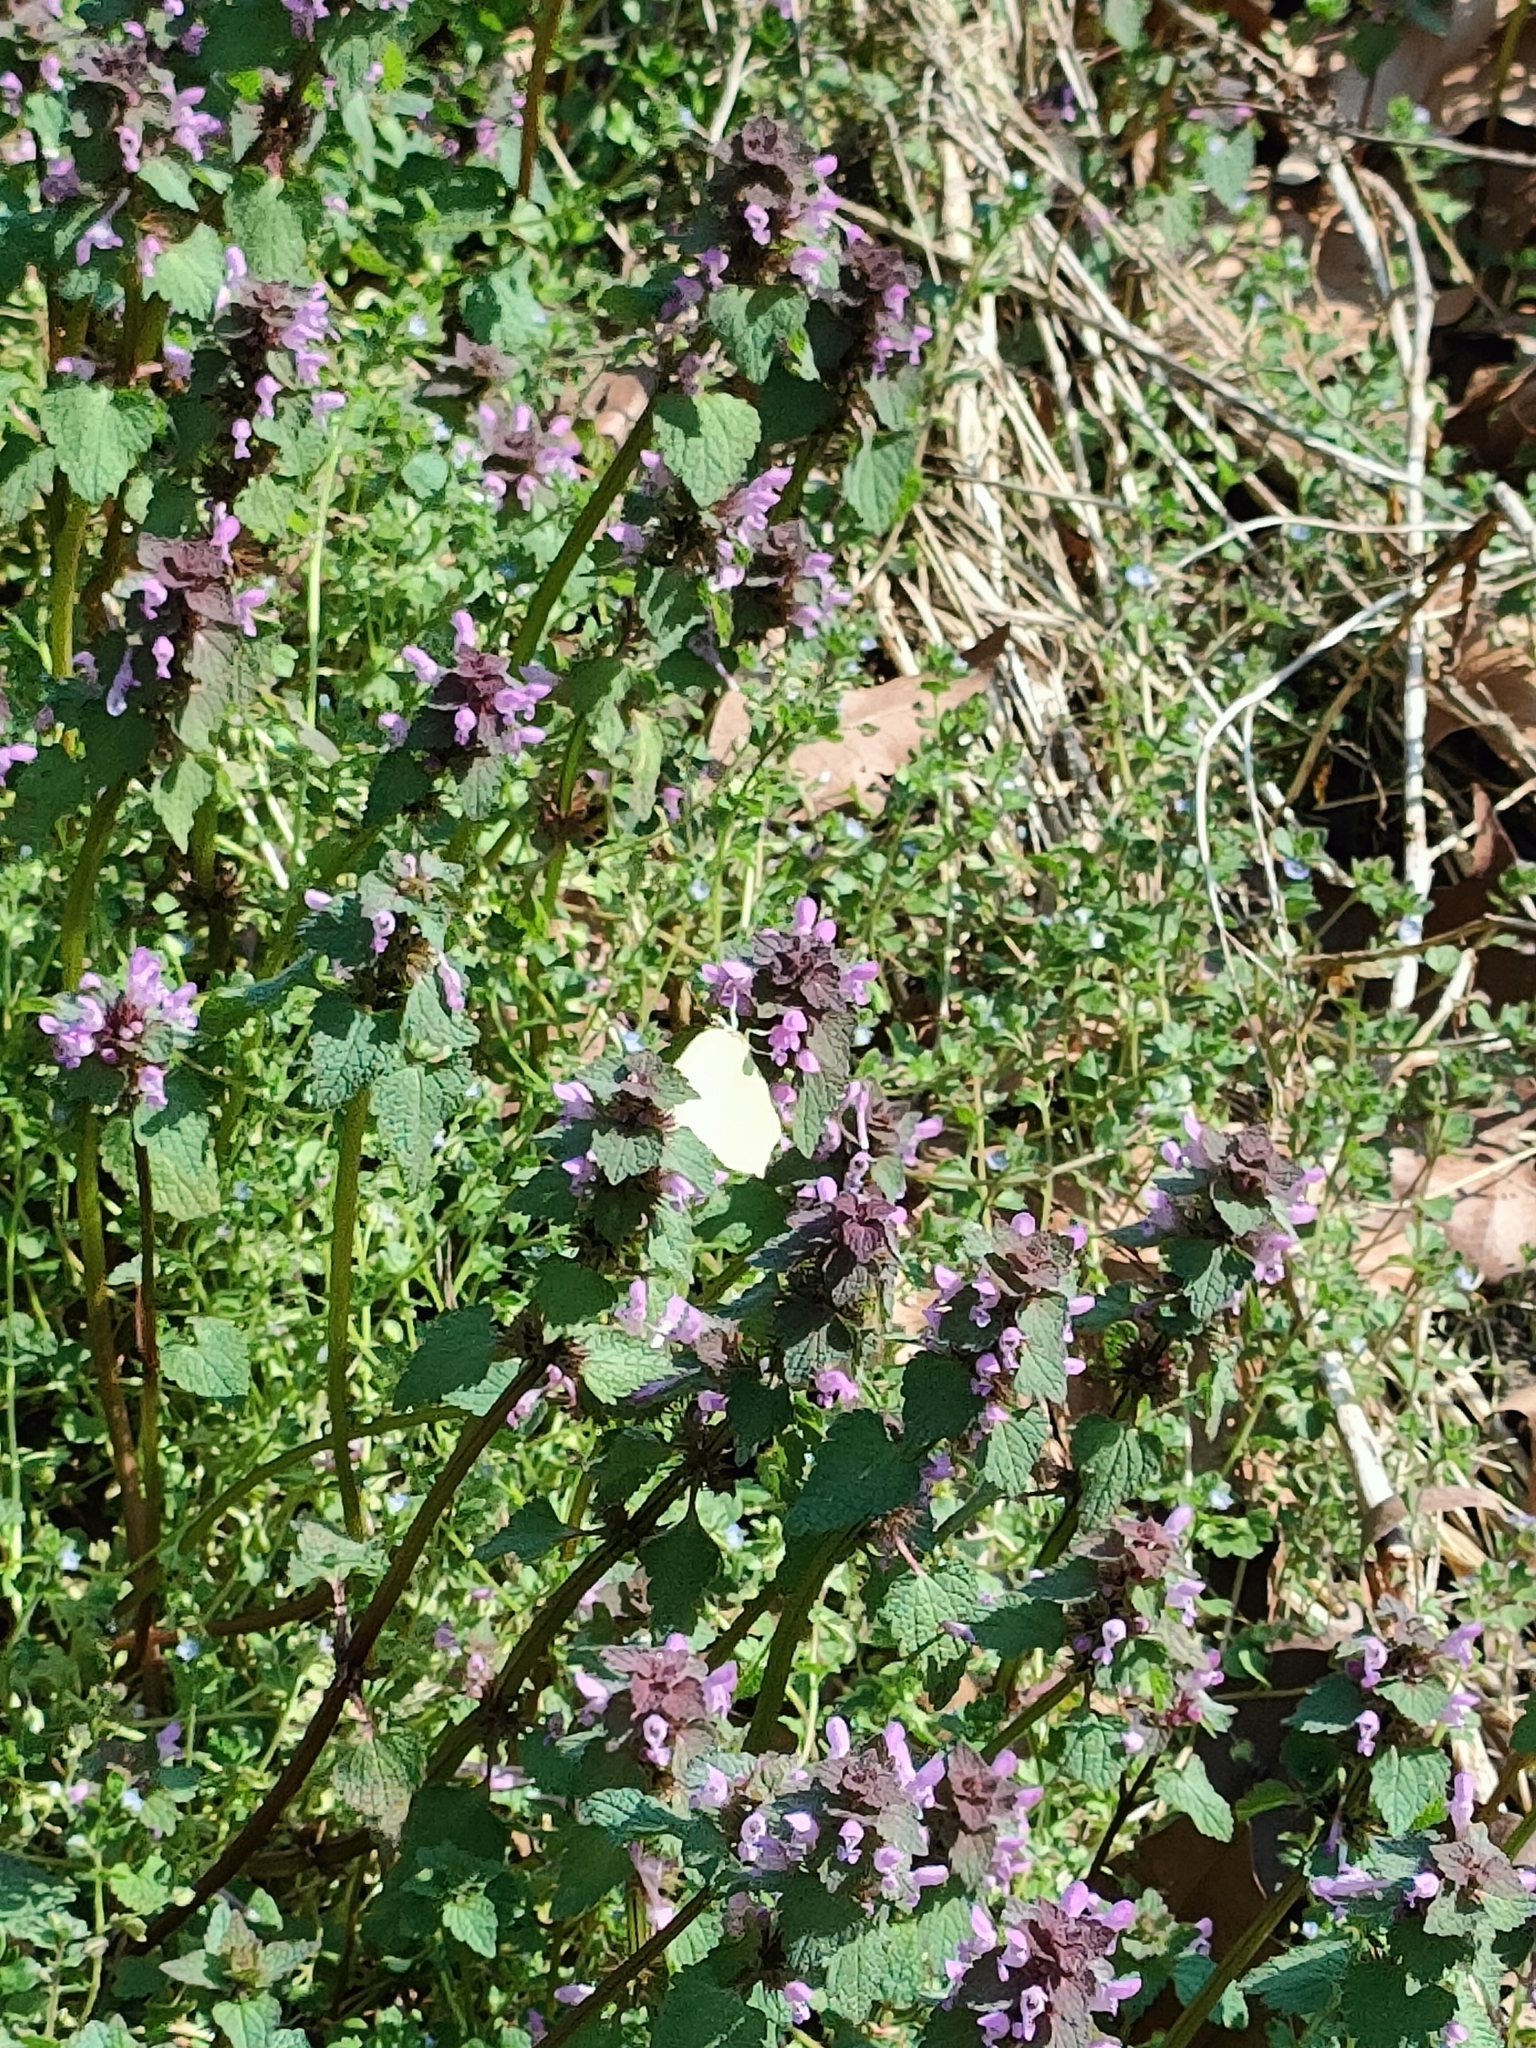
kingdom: Plantae
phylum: Tracheophyta
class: Magnoliopsida
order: Lamiales
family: Lamiaceae
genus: Lamium
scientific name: Lamium purpureum
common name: Red dead-nettle
